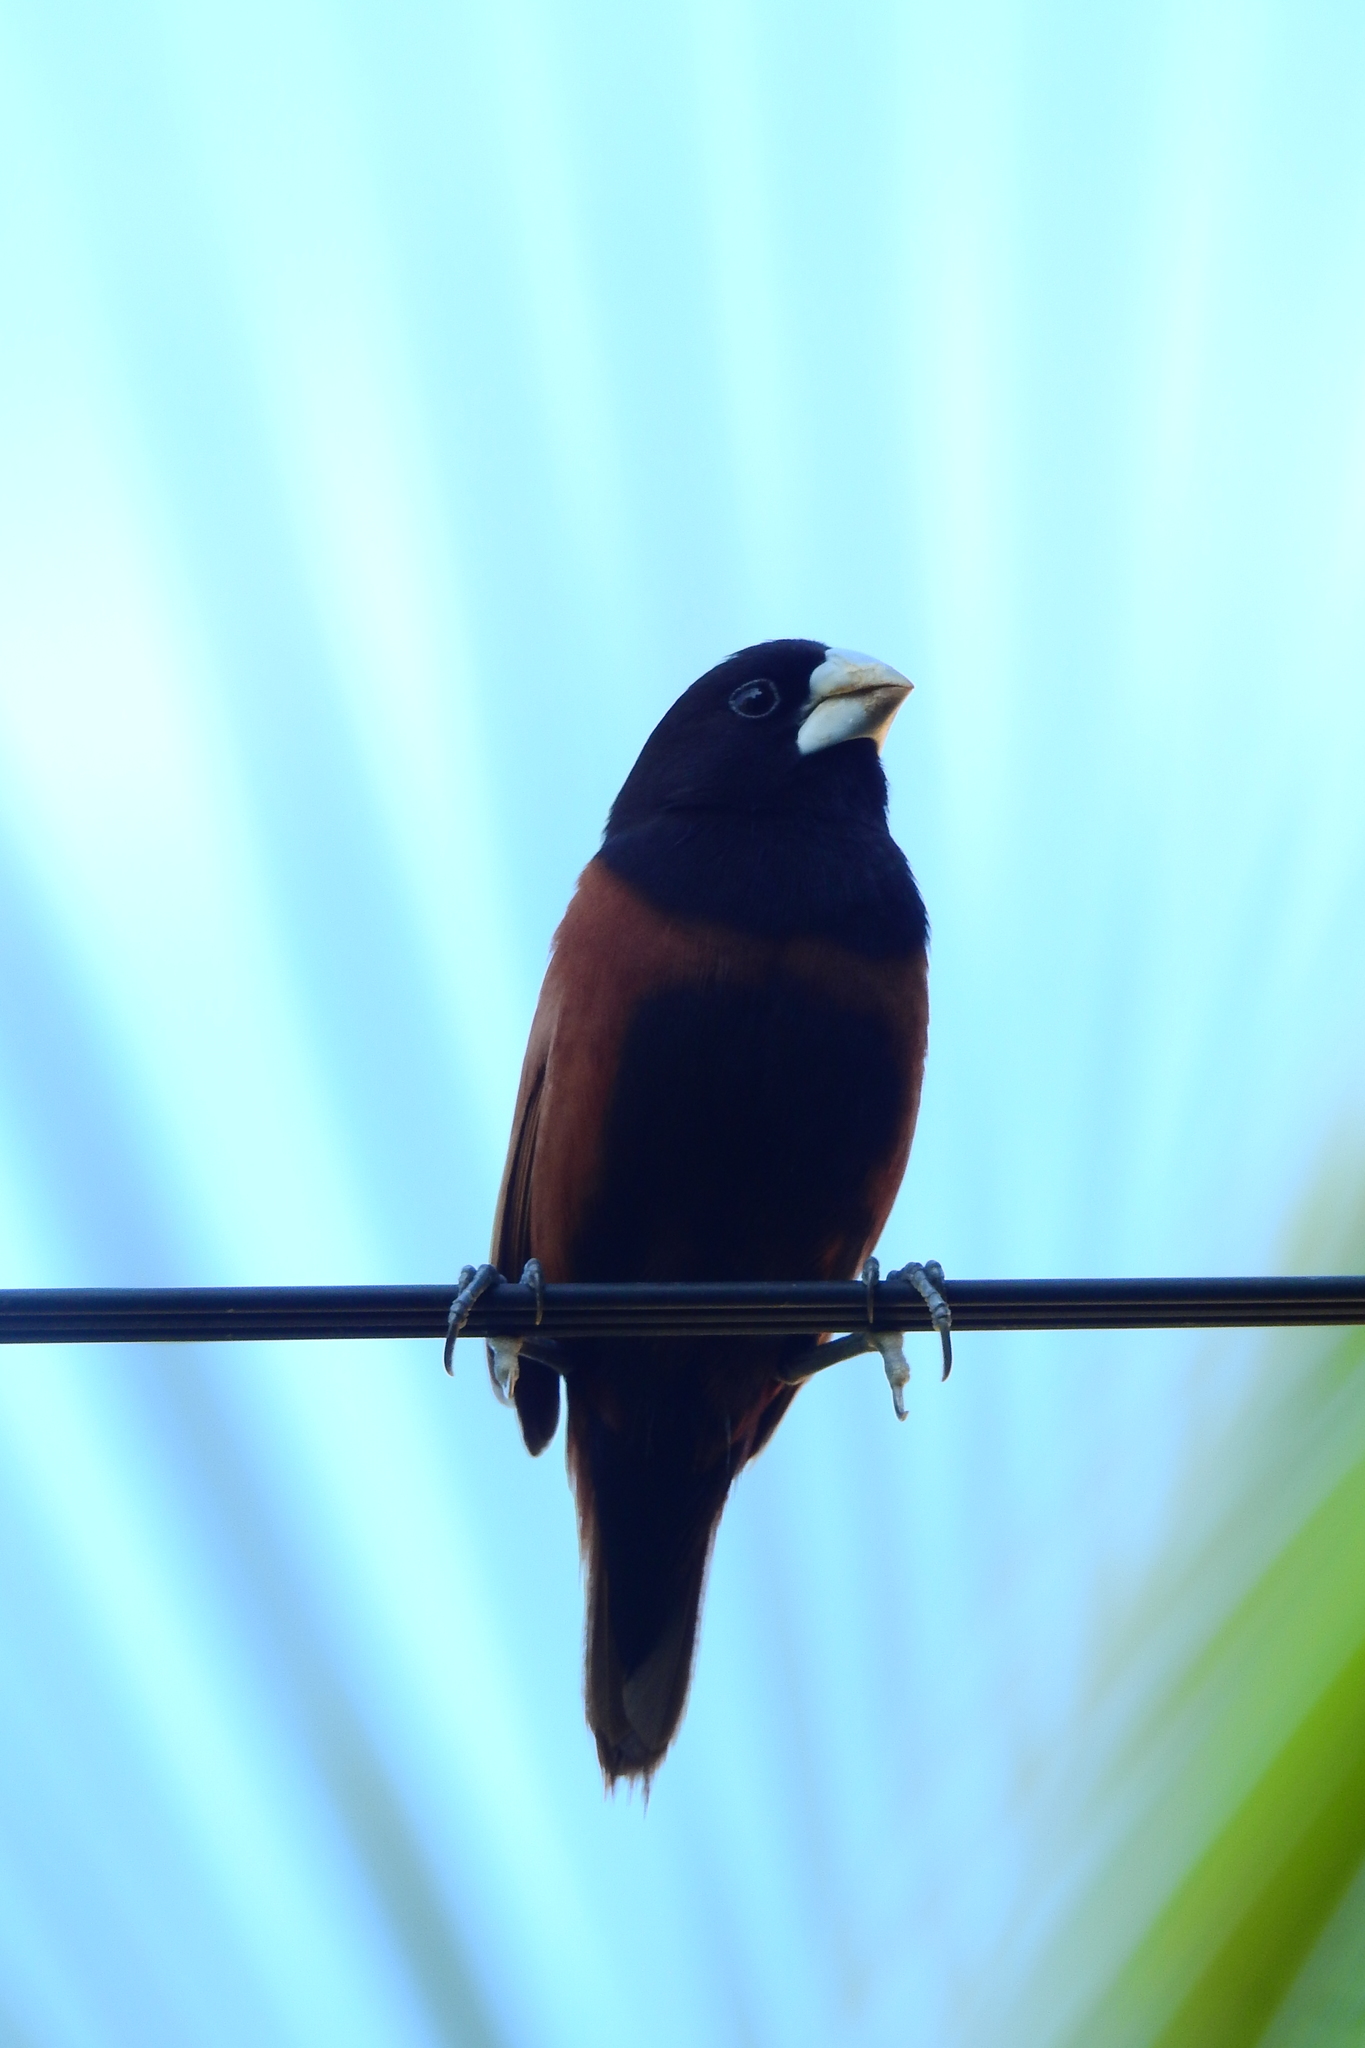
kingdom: Animalia
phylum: Chordata
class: Aves
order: Passeriformes
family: Estrildidae
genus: Lonchura
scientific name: Lonchura atricapilla
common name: Chestnut munia
